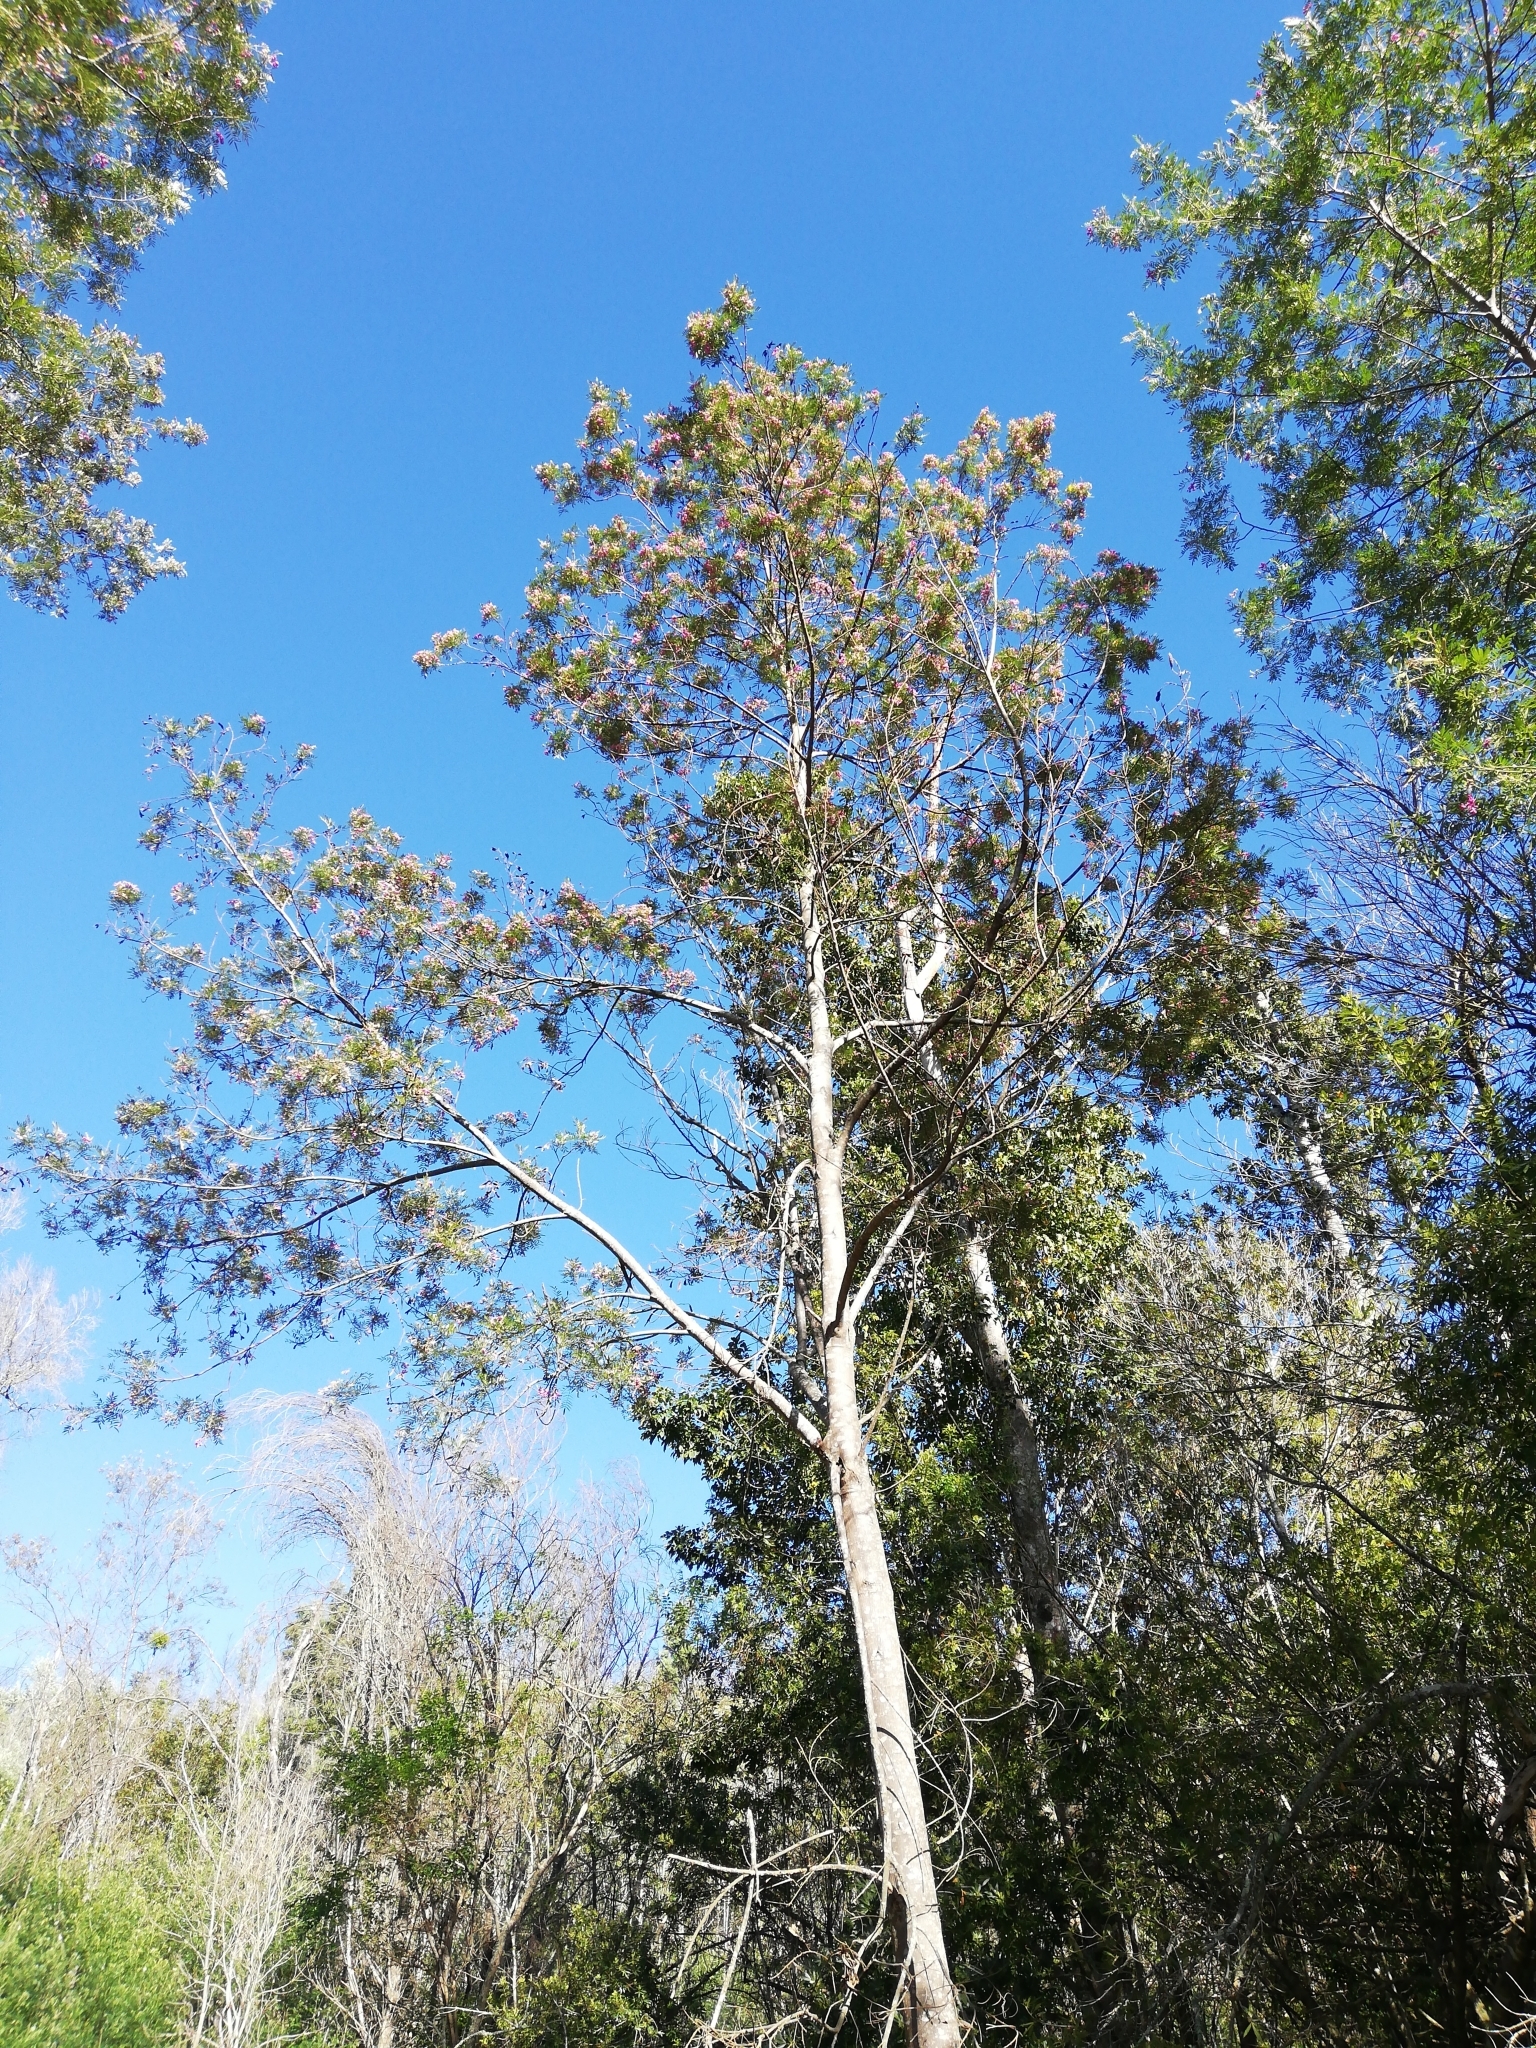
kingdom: Plantae
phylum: Tracheophyta
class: Magnoliopsida
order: Fabales
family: Fabaceae
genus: Virgilia
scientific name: Virgilia oroboides
